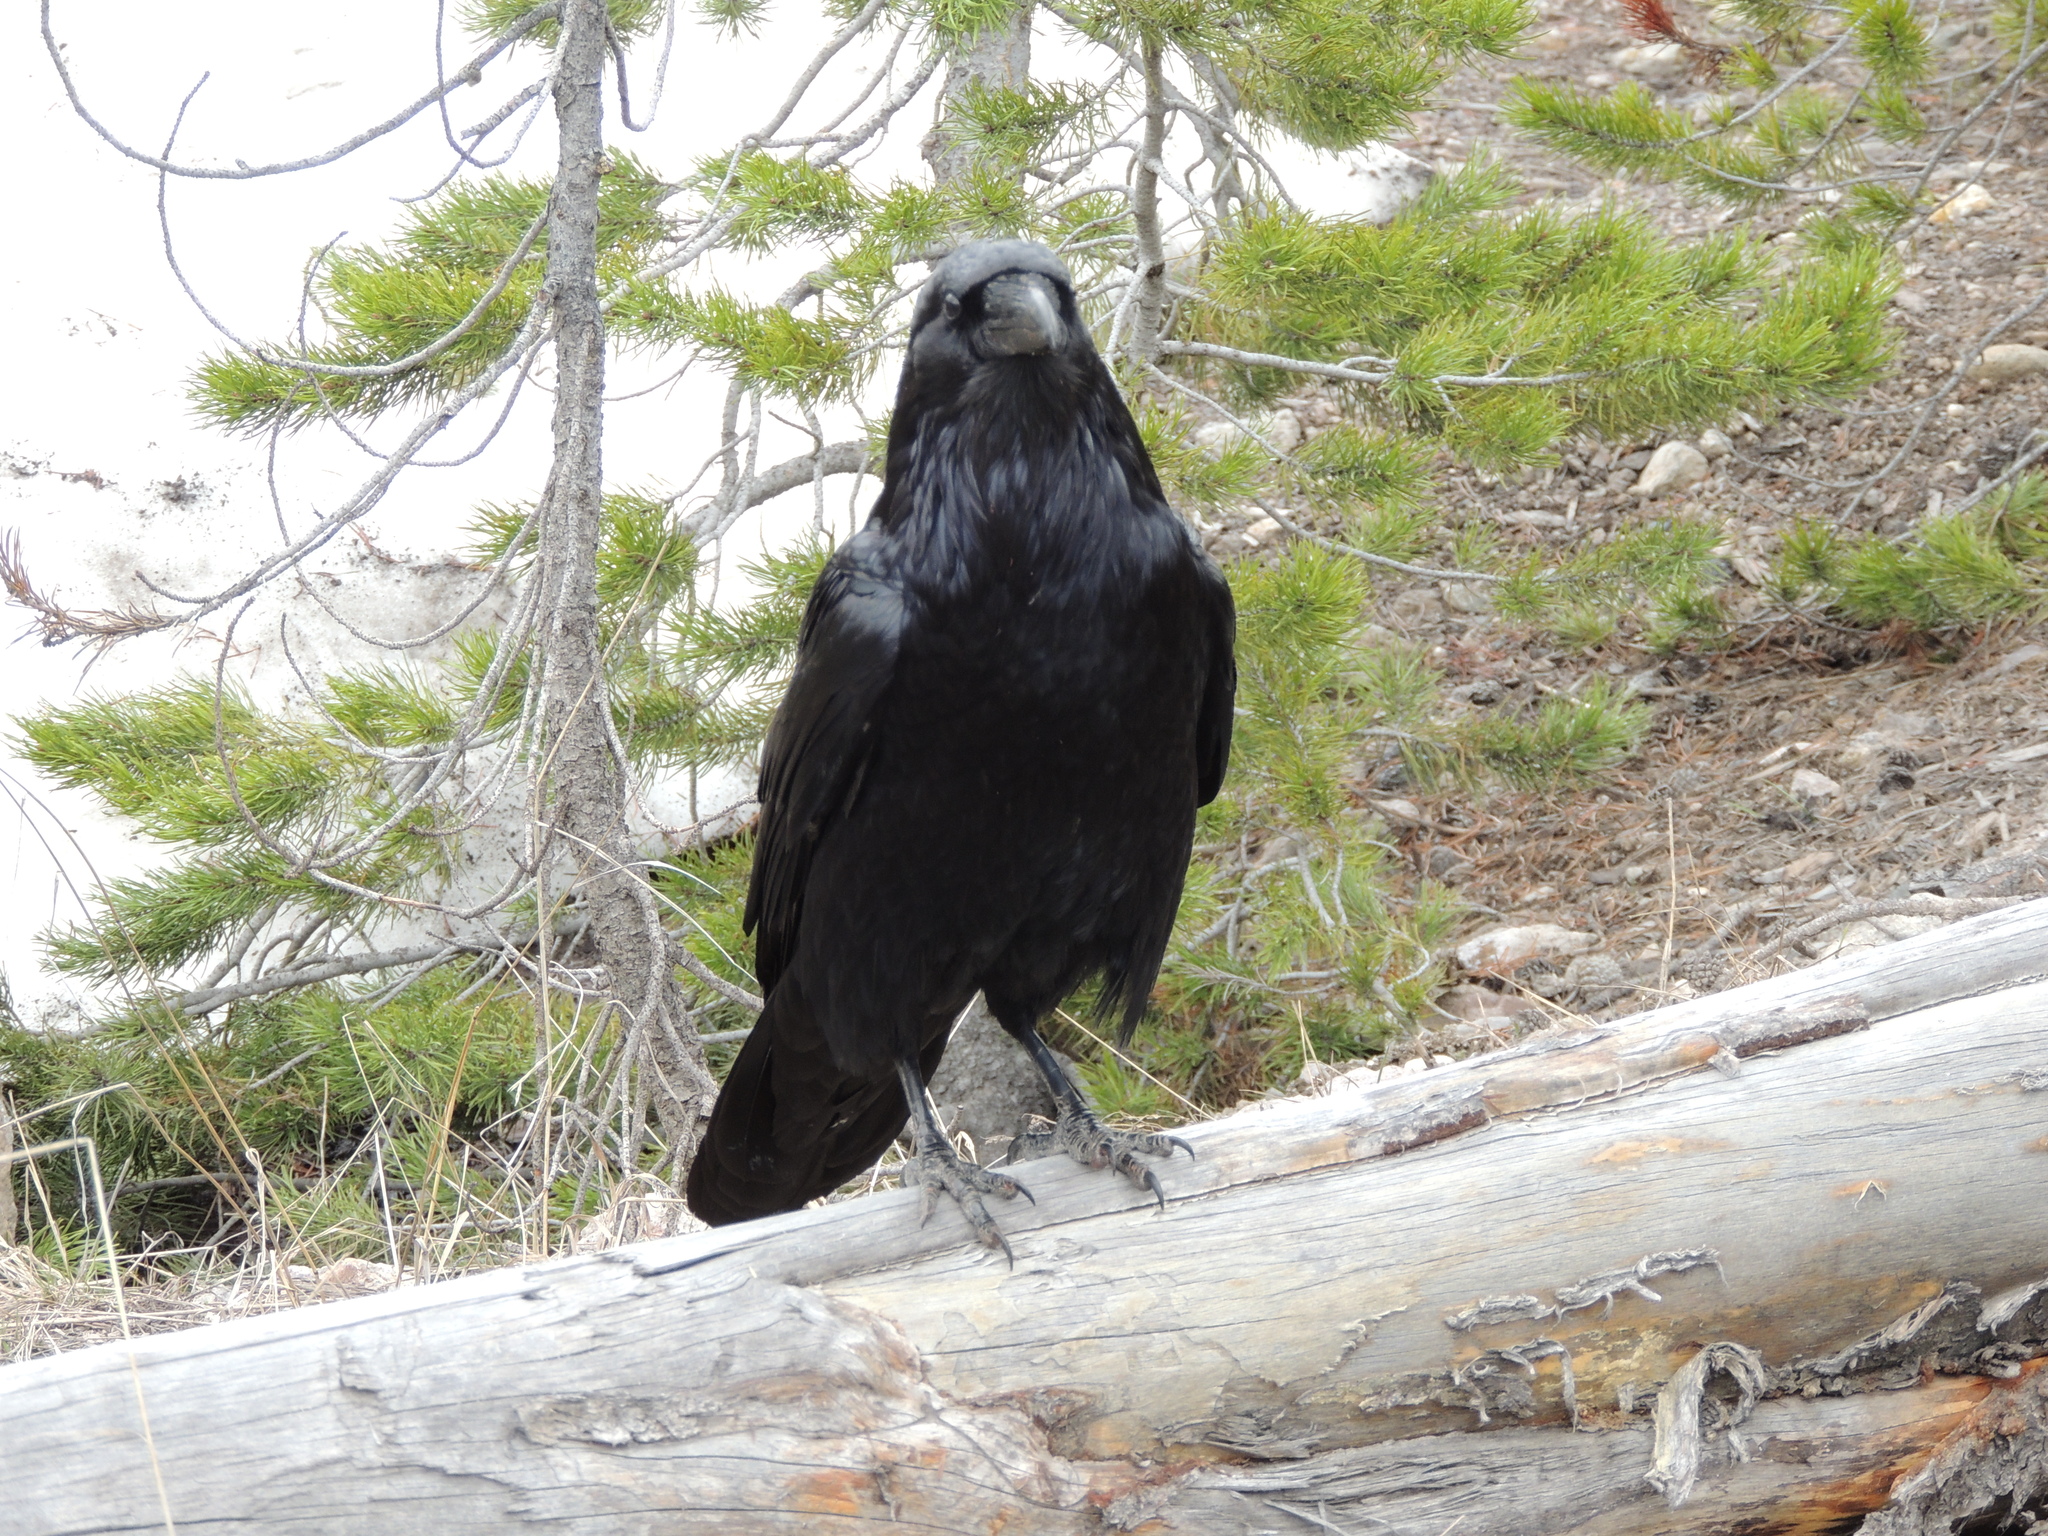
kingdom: Animalia
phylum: Chordata
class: Aves
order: Passeriformes
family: Corvidae
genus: Corvus
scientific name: Corvus corax
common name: Common raven
